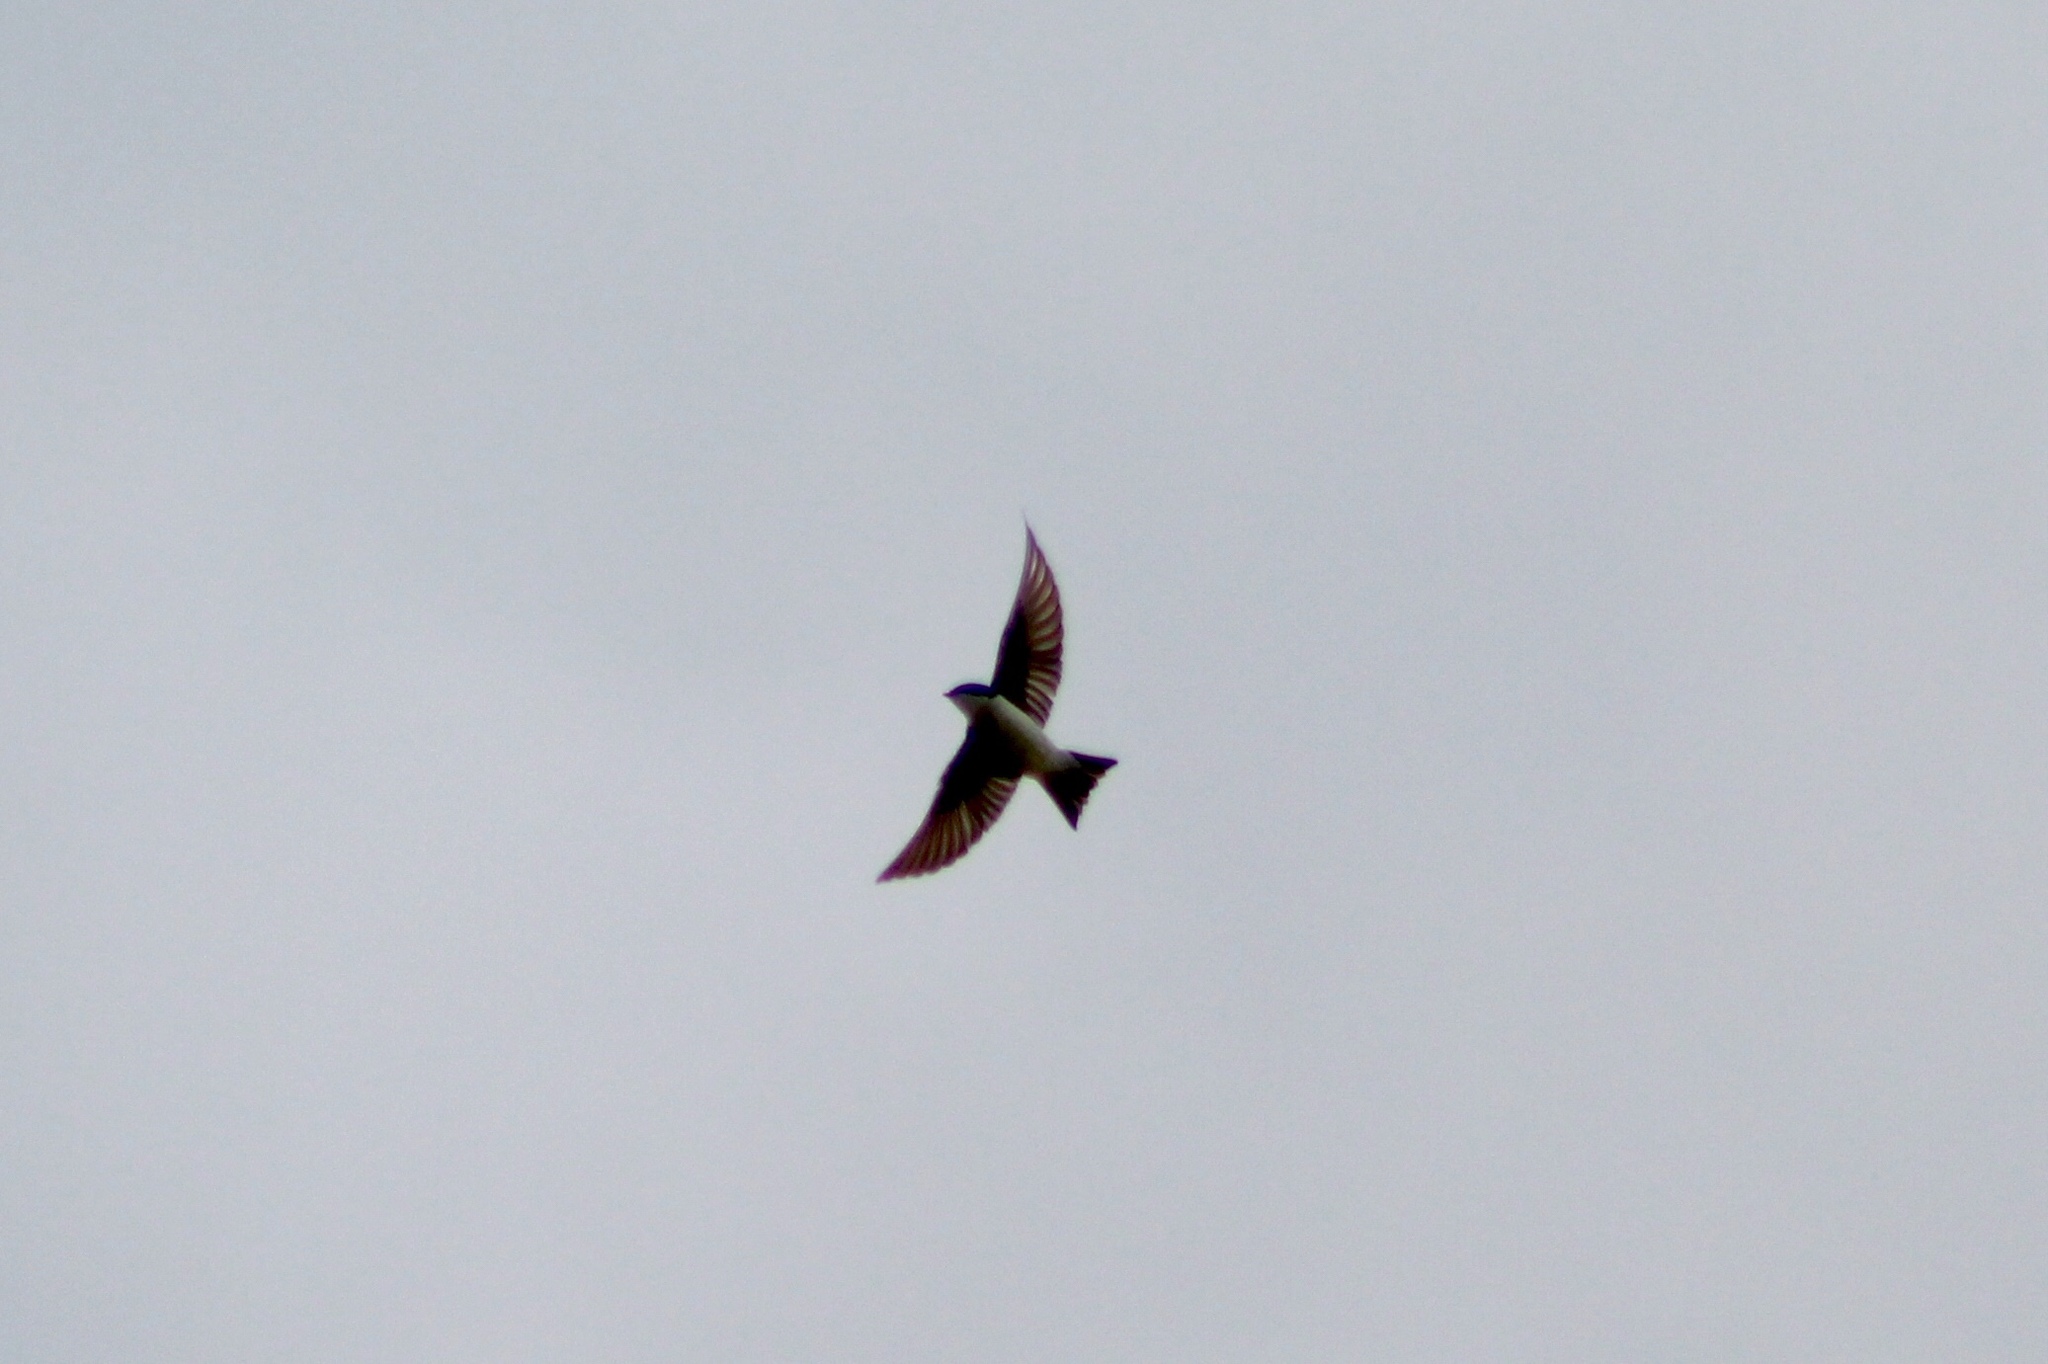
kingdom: Animalia
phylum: Chordata
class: Aves
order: Passeriformes
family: Hirundinidae
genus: Tachycineta
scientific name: Tachycineta bicolor
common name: Tree swallow
